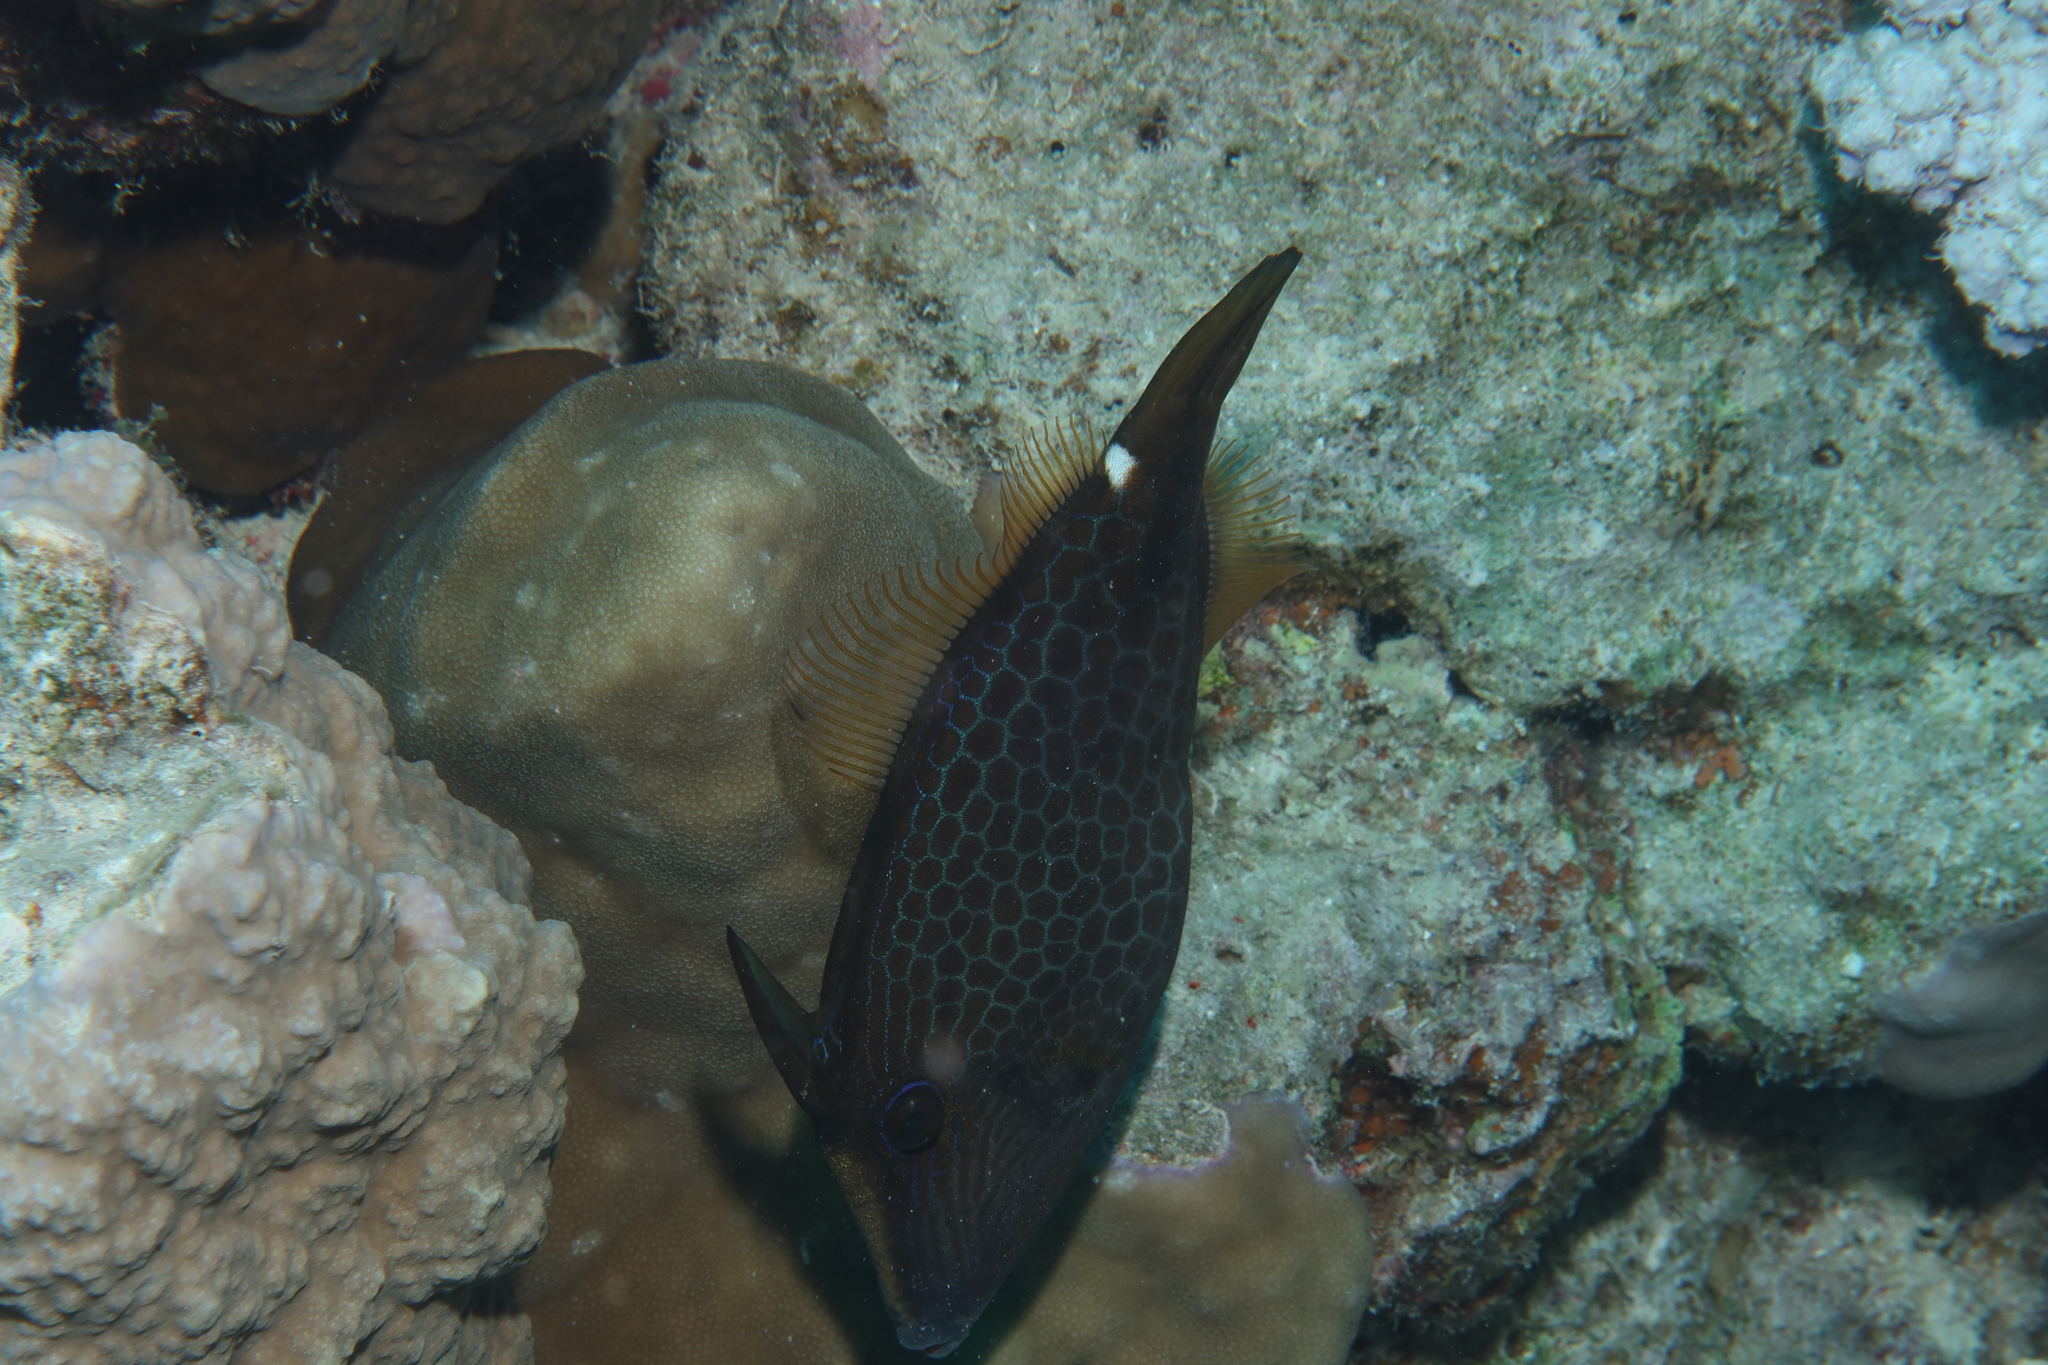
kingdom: Animalia
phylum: Chordata
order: Tetraodontiformes
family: Monacanthidae
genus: Cantherhines
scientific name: Cantherhines pardalis
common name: Honeycomb filefish
